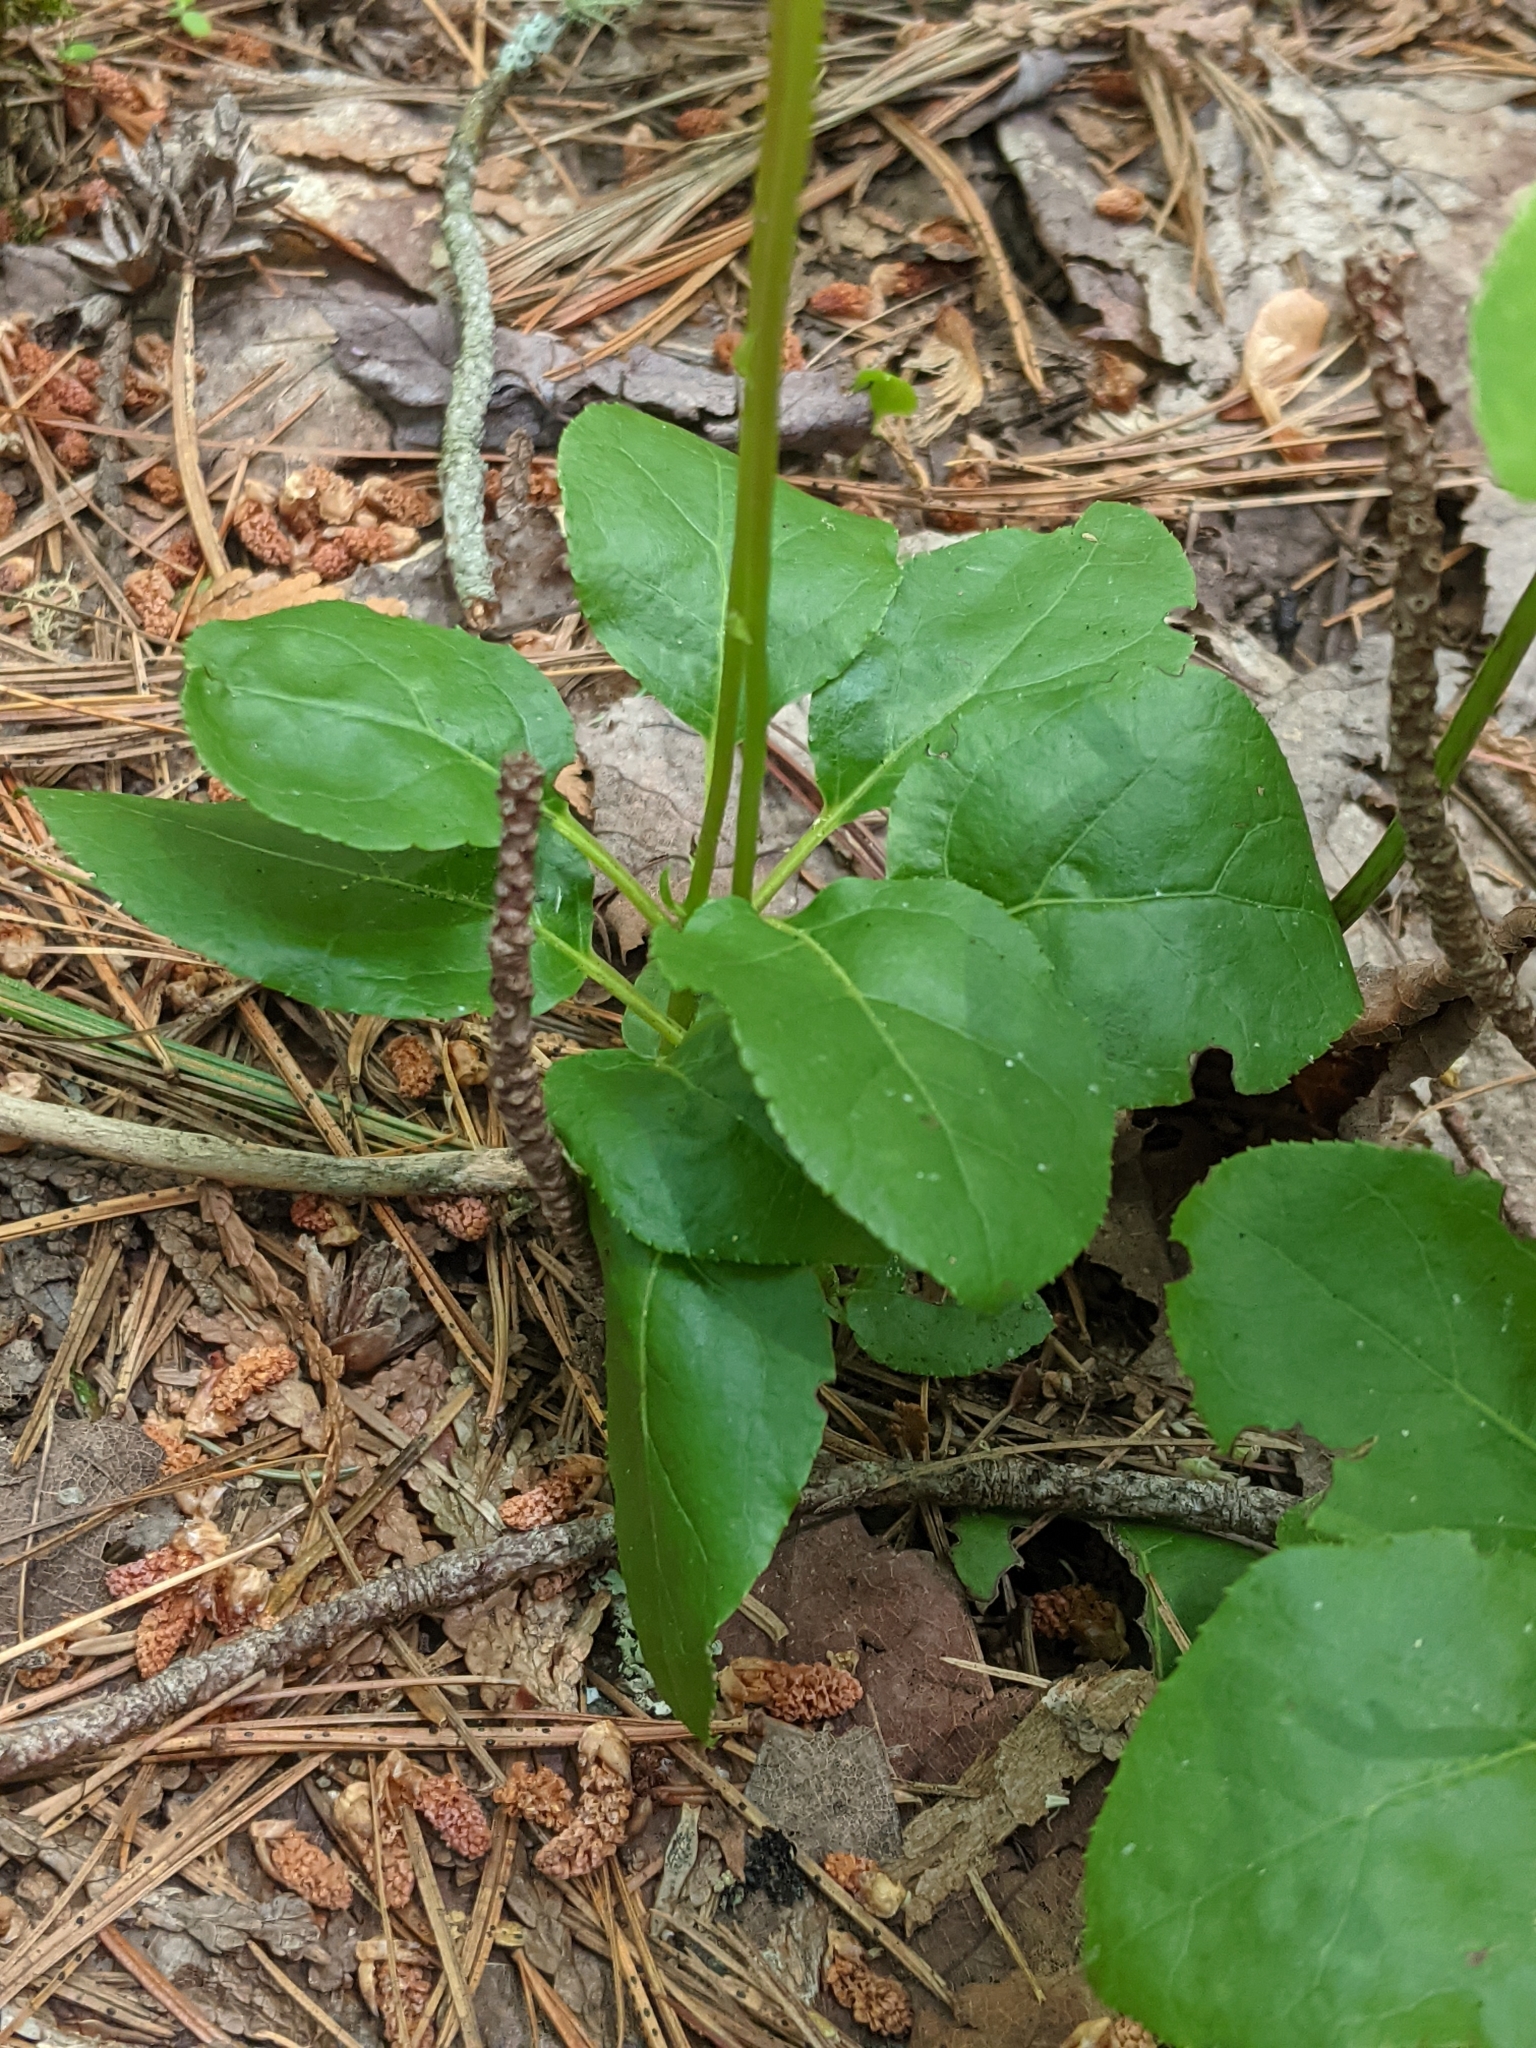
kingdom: Plantae
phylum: Tracheophyta
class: Magnoliopsida
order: Ericales
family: Ericaceae
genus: Orthilia
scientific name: Orthilia secunda
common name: One-sided orthilia
